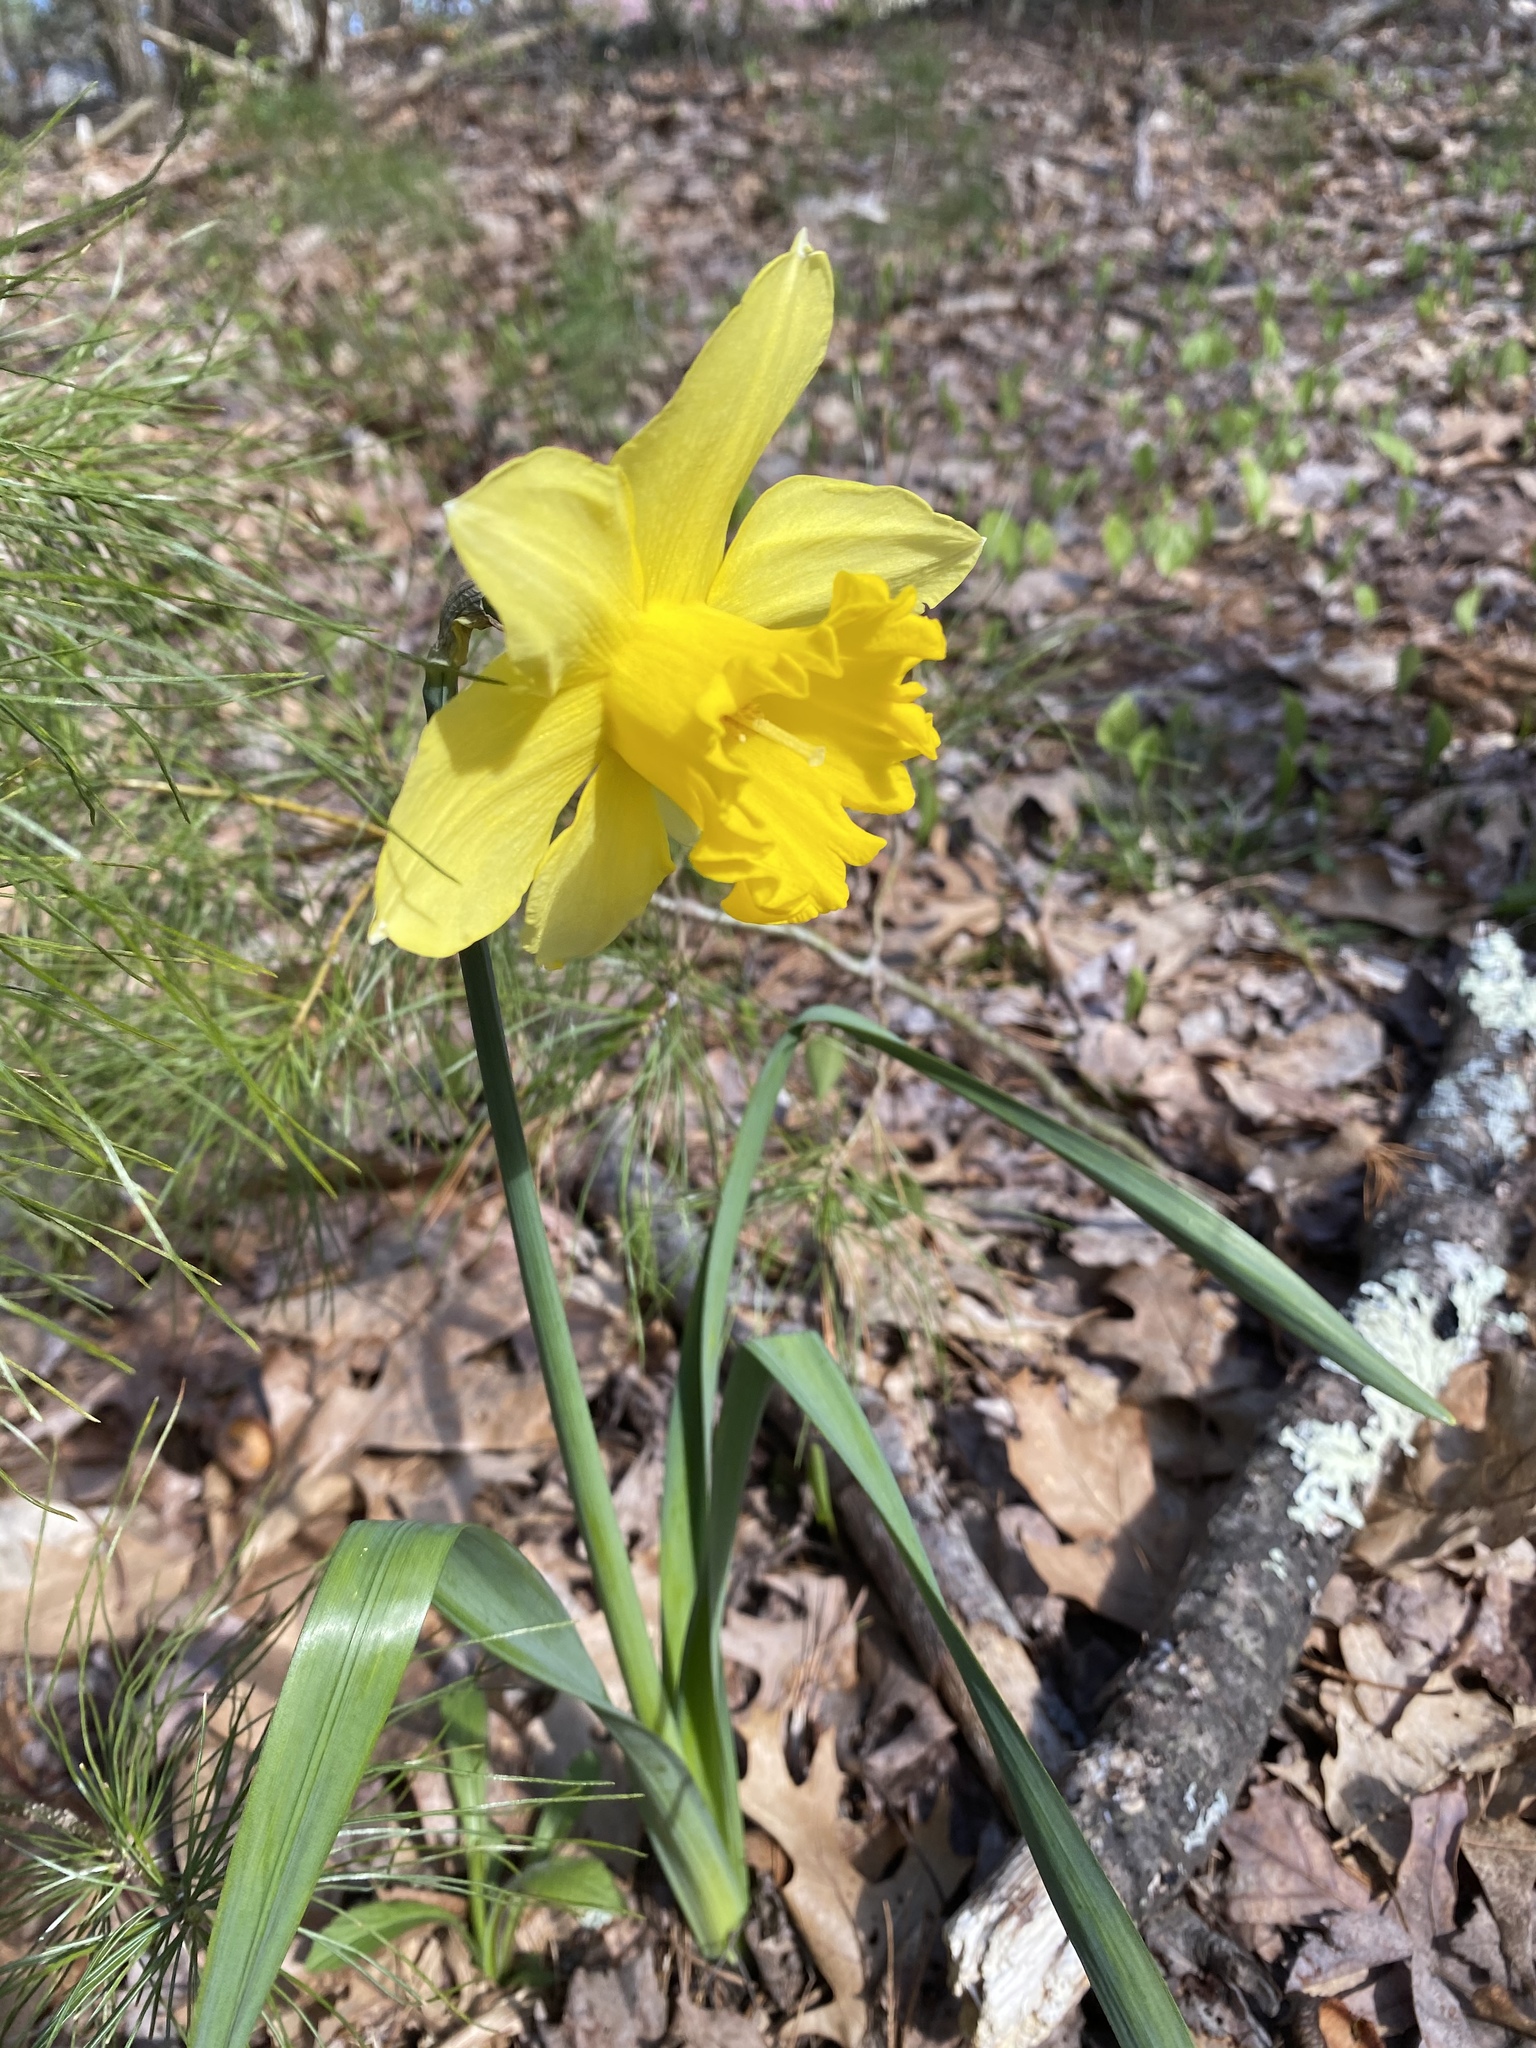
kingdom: Plantae
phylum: Tracheophyta
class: Liliopsida
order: Asparagales
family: Amaryllidaceae
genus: Narcissus
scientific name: Narcissus pseudonarcissus
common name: Daffodil
